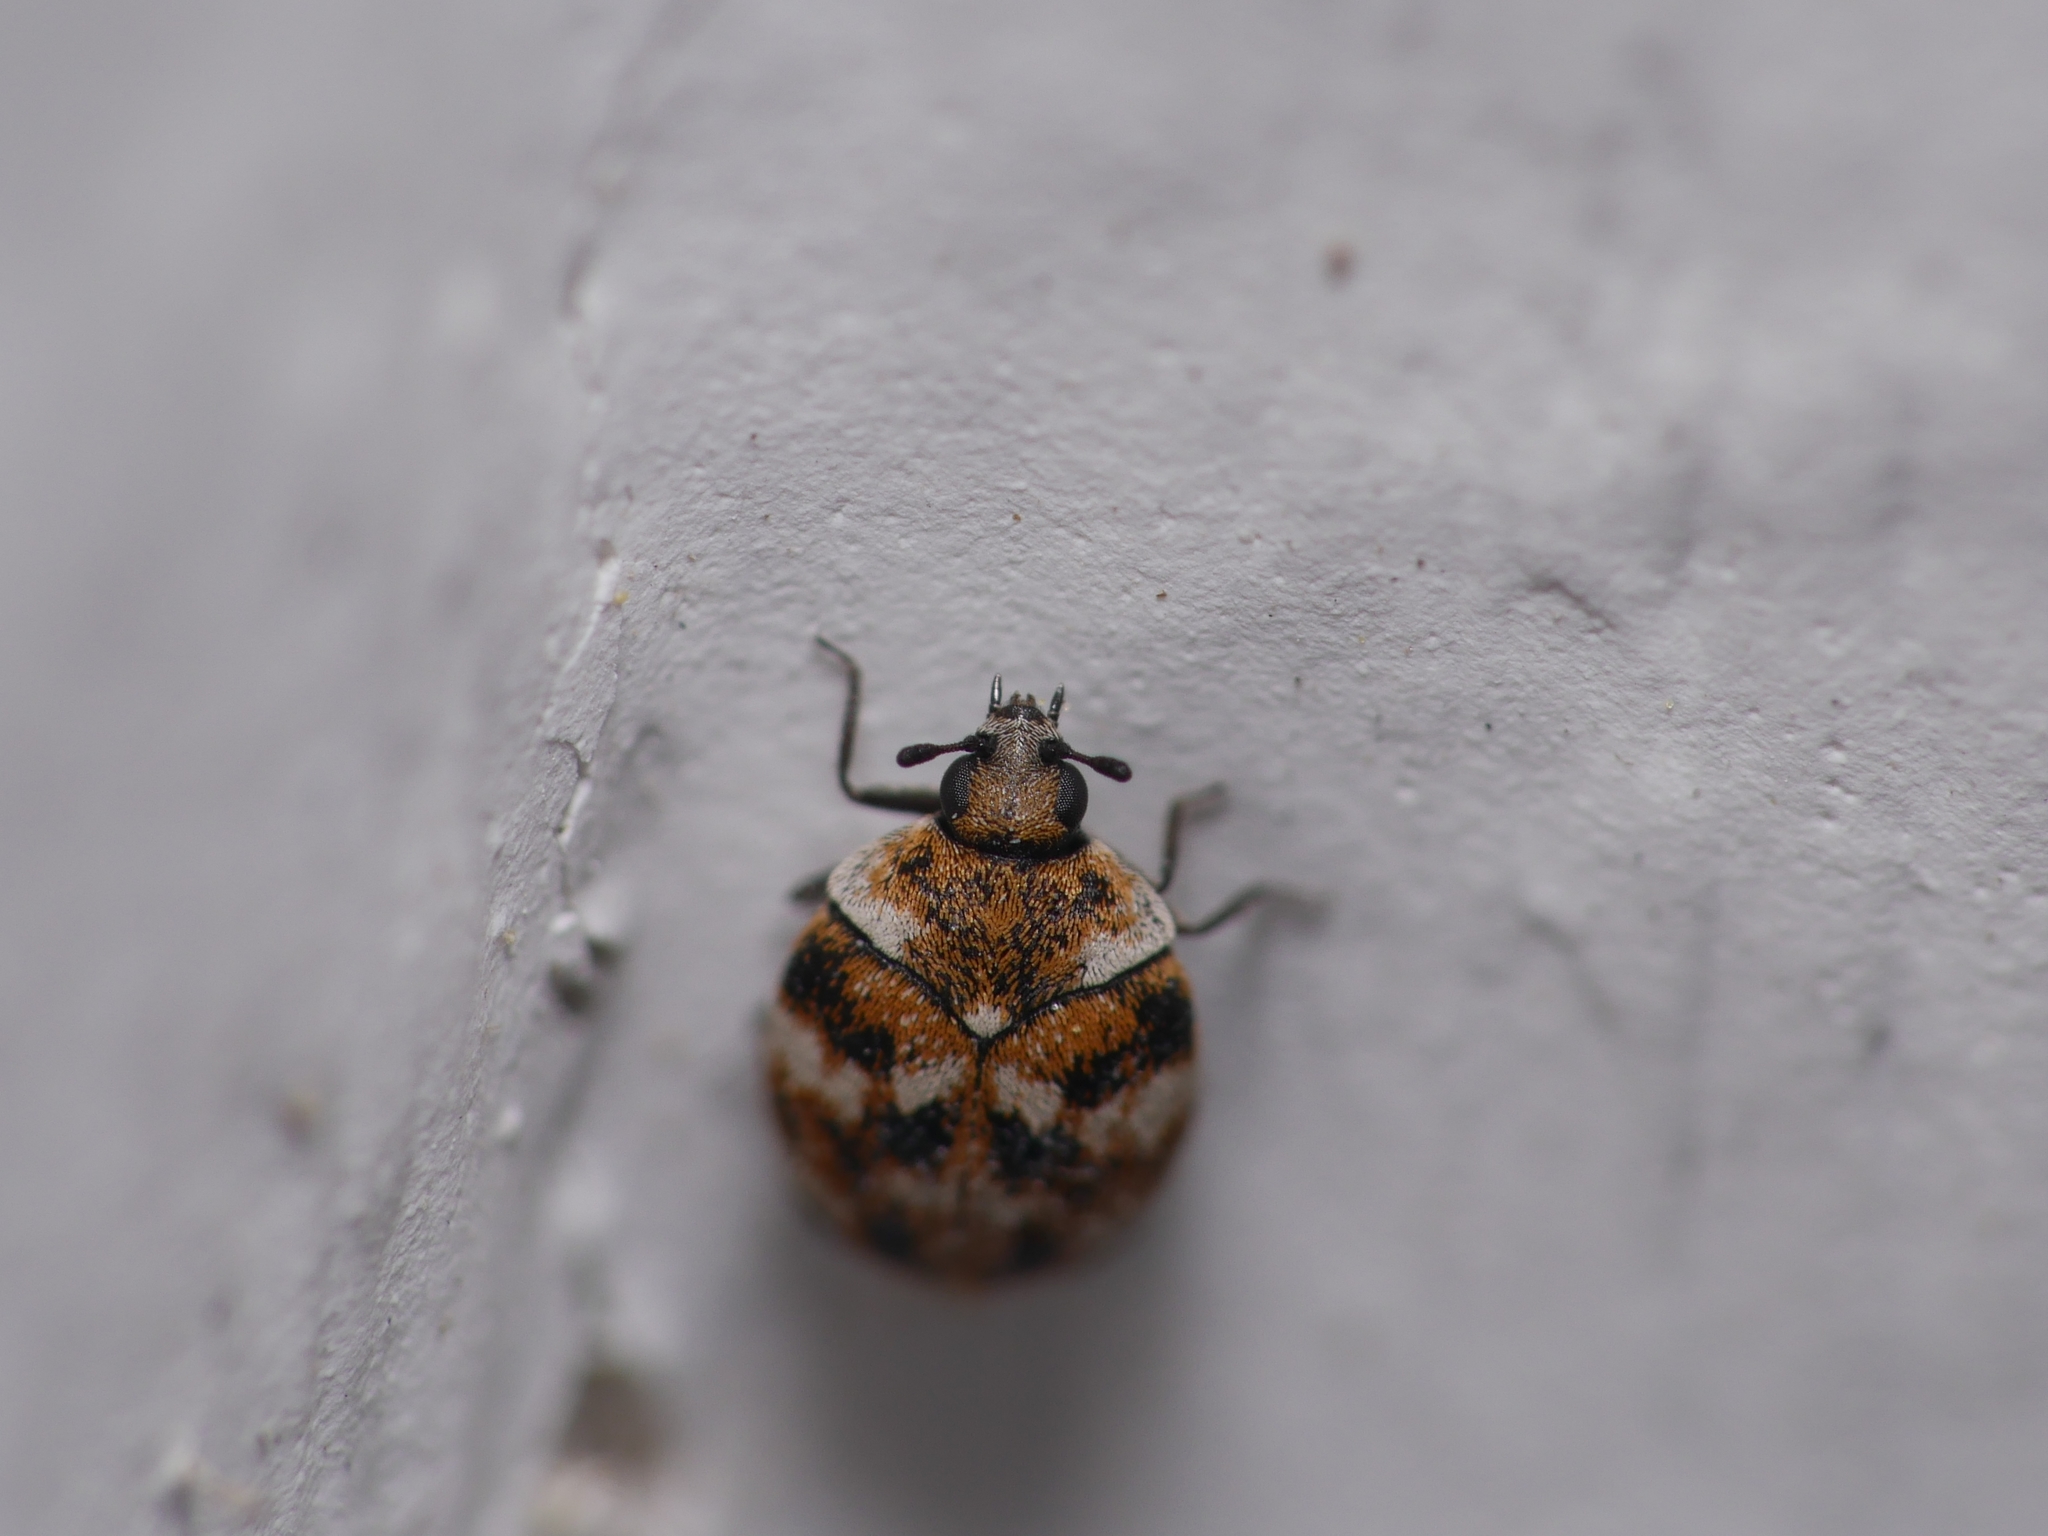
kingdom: Animalia
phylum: Arthropoda
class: Insecta
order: Coleoptera
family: Dermestidae
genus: Anthrenus
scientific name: Anthrenus verbasci
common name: Varied carpet beetle
